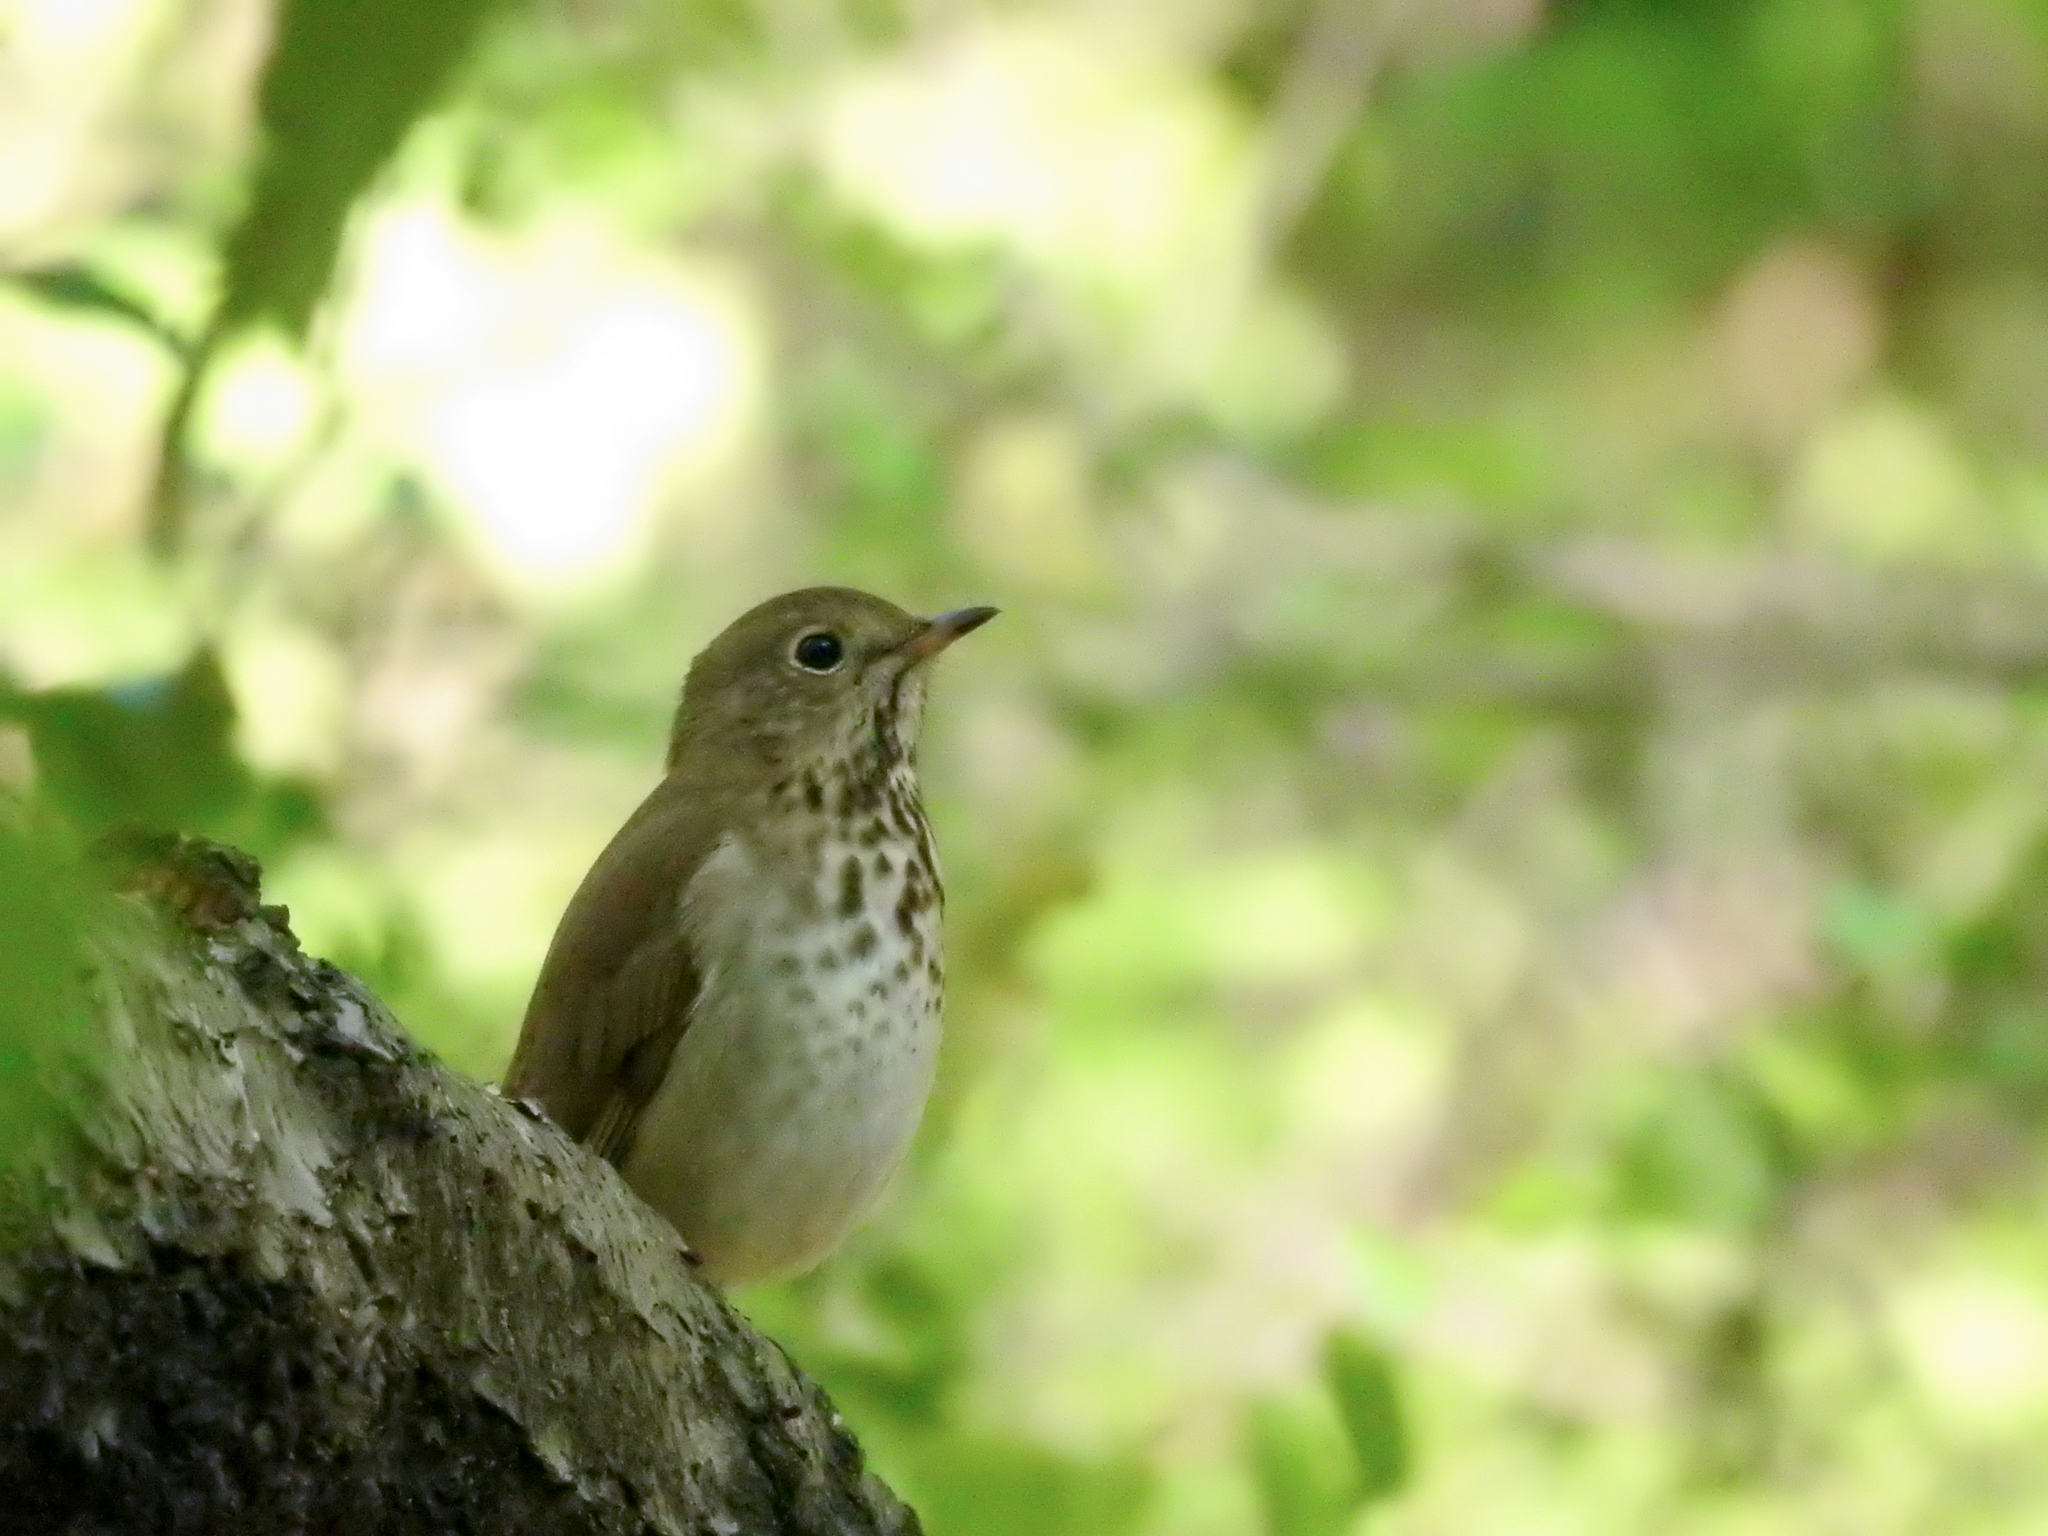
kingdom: Animalia
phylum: Chordata
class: Aves
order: Passeriformes
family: Turdidae
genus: Catharus
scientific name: Catharus guttatus
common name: Hermit thrush
